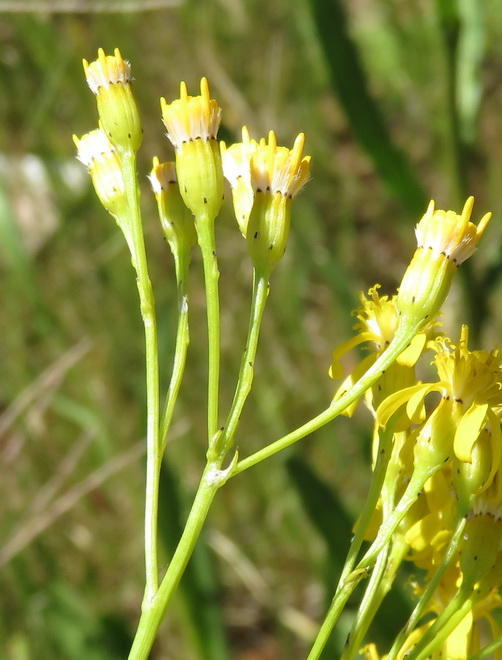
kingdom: Plantae
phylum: Tracheophyta
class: Magnoliopsida
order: Asterales
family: Asteraceae
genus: Senecio
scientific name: Senecio inornatus
